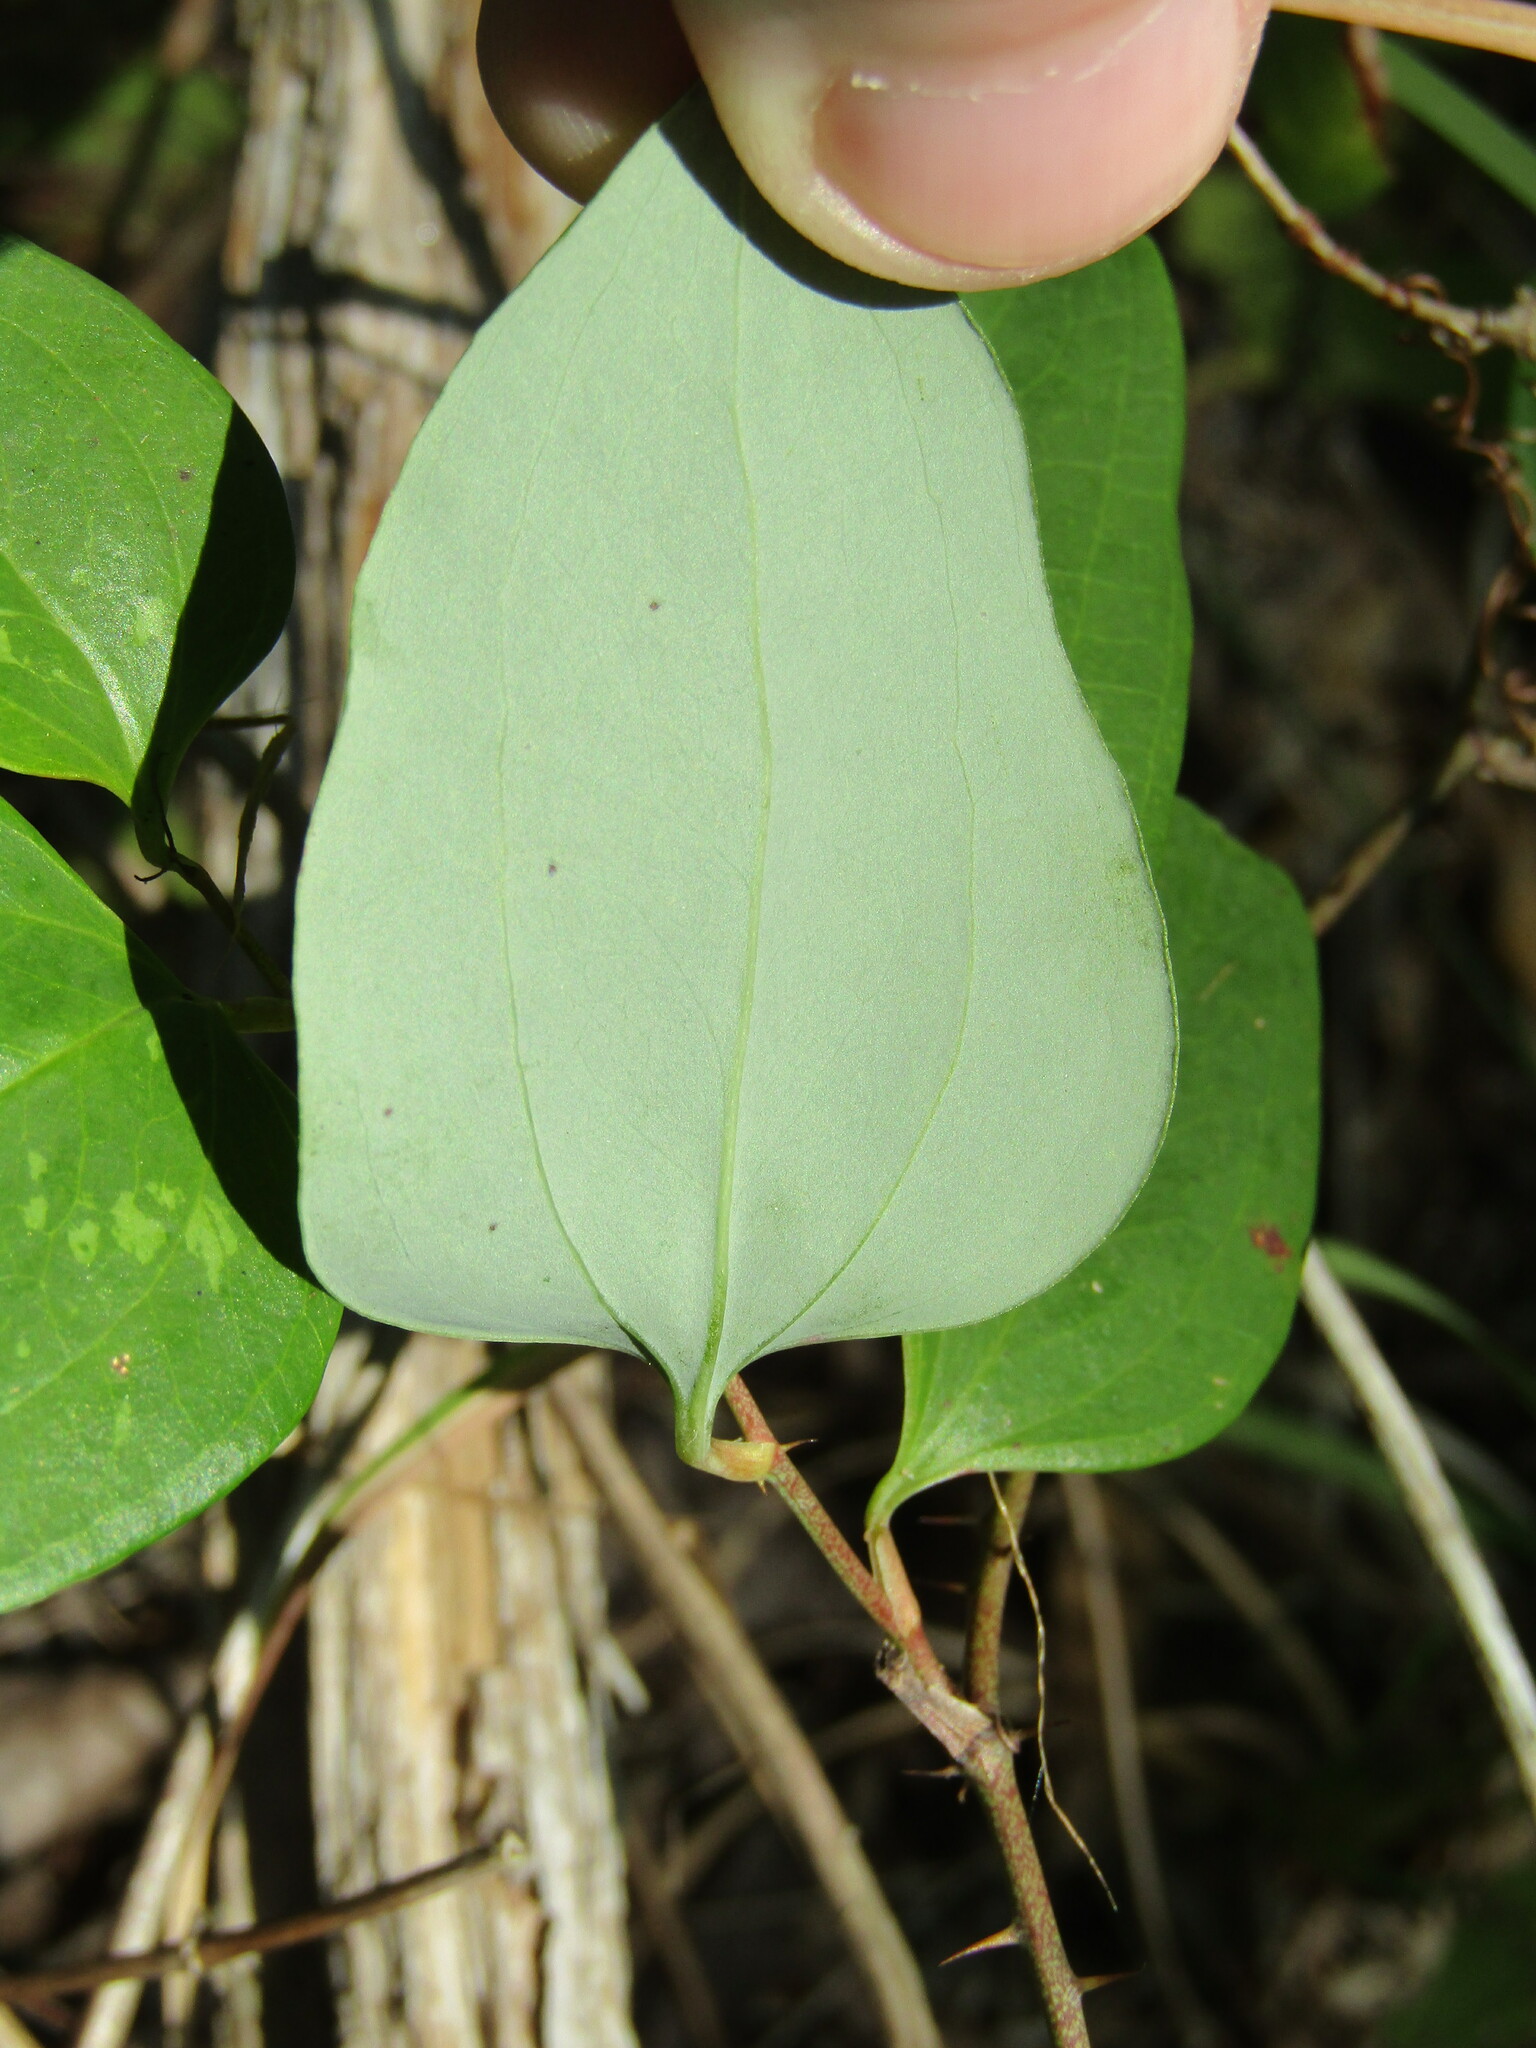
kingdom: Plantae
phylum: Tracheophyta
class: Liliopsida
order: Liliales
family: Smilacaceae
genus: Smilax
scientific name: Smilax glauca
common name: Cat greenbrier
